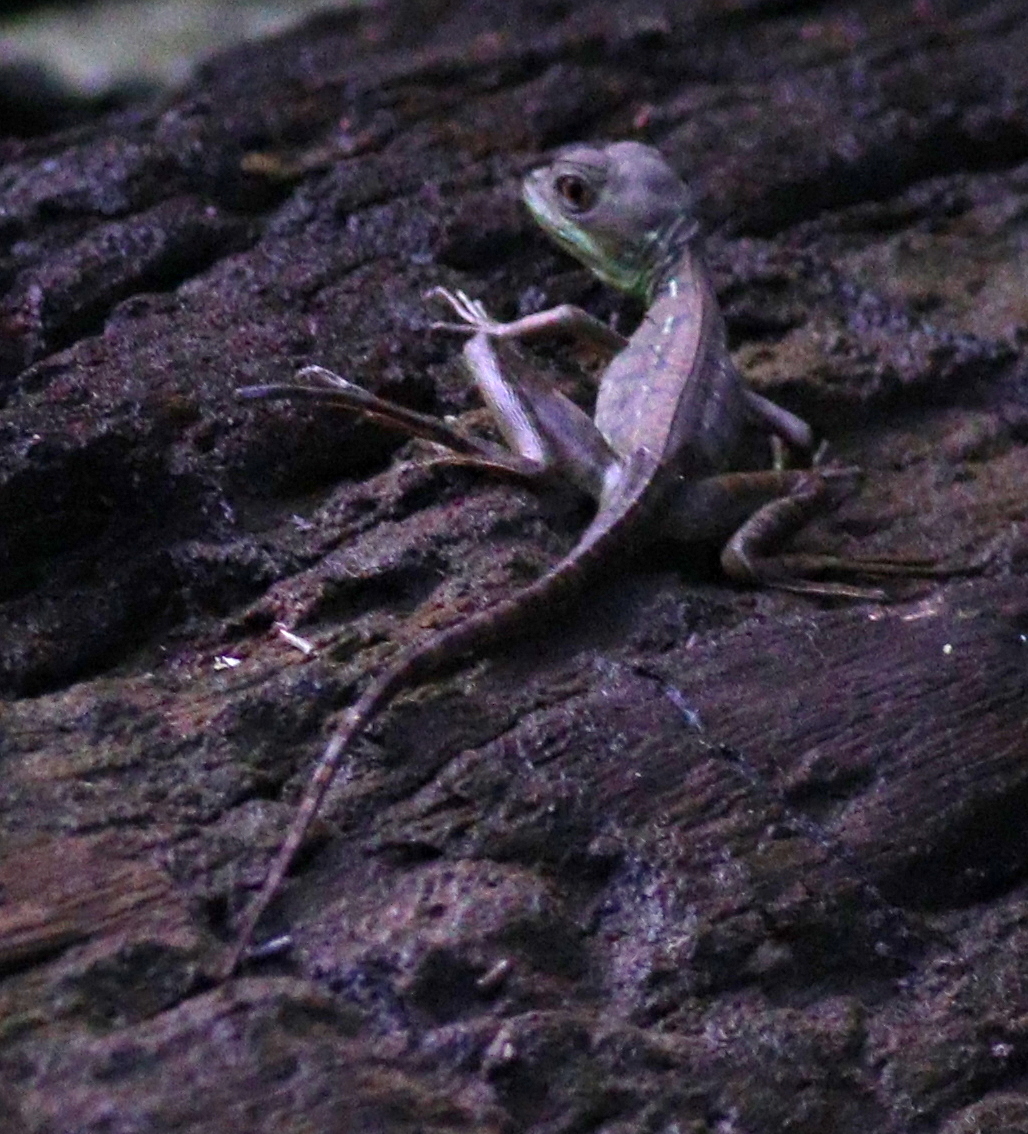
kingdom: Animalia
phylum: Chordata
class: Squamata
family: Corytophanidae
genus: Basiliscus
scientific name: Basiliscus plumifrons
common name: Green basilisk
